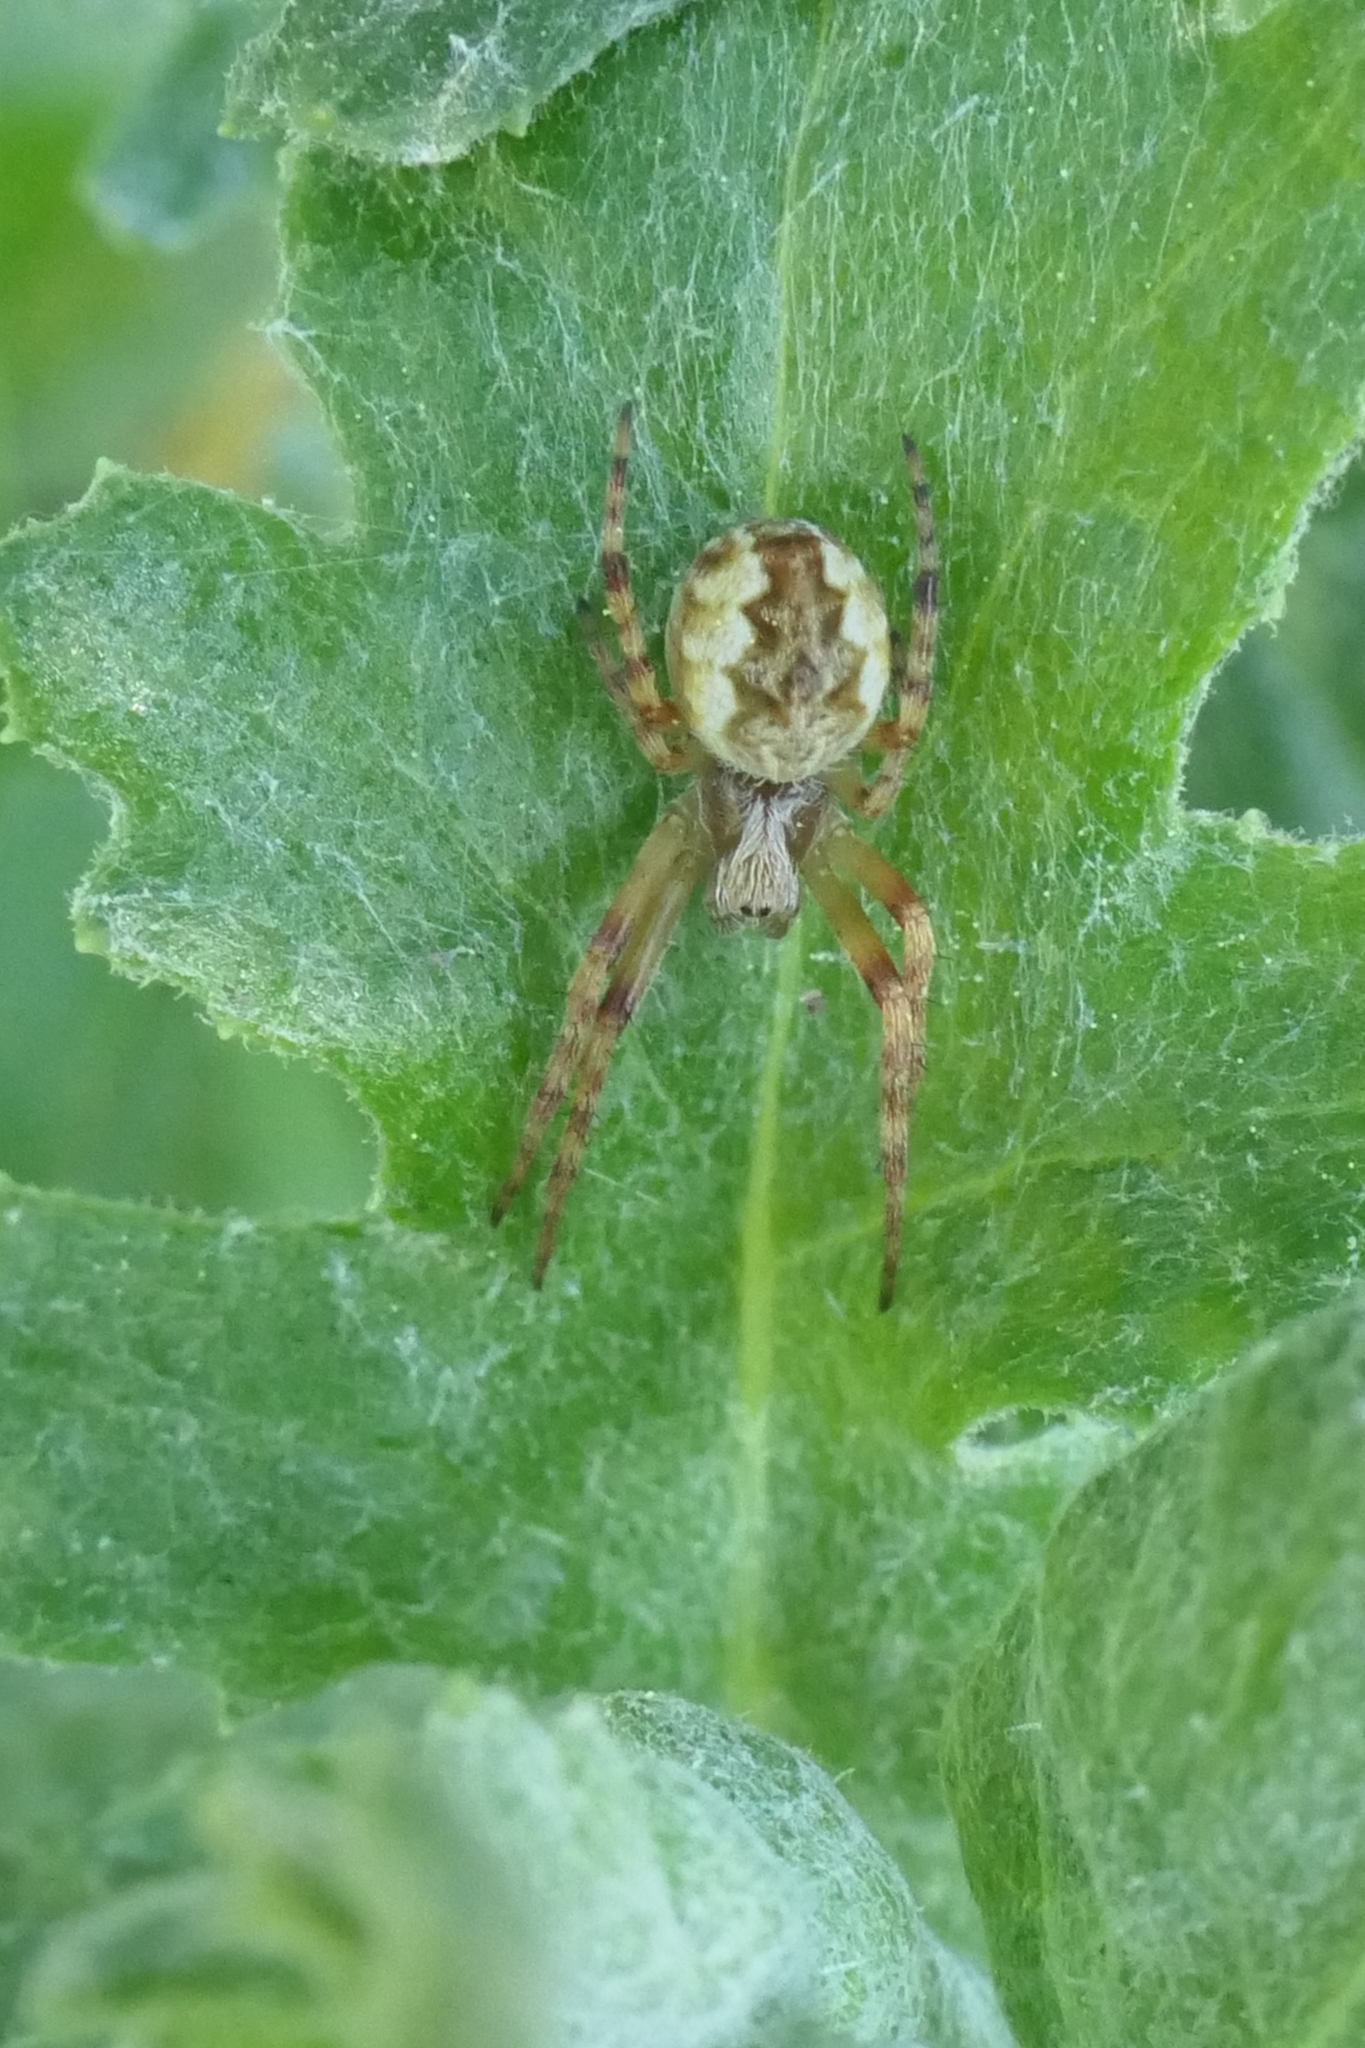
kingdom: Animalia
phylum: Arthropoda
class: Arachnida
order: Araneae
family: Araneidae
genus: Salsa
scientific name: Salsa fuliginata
